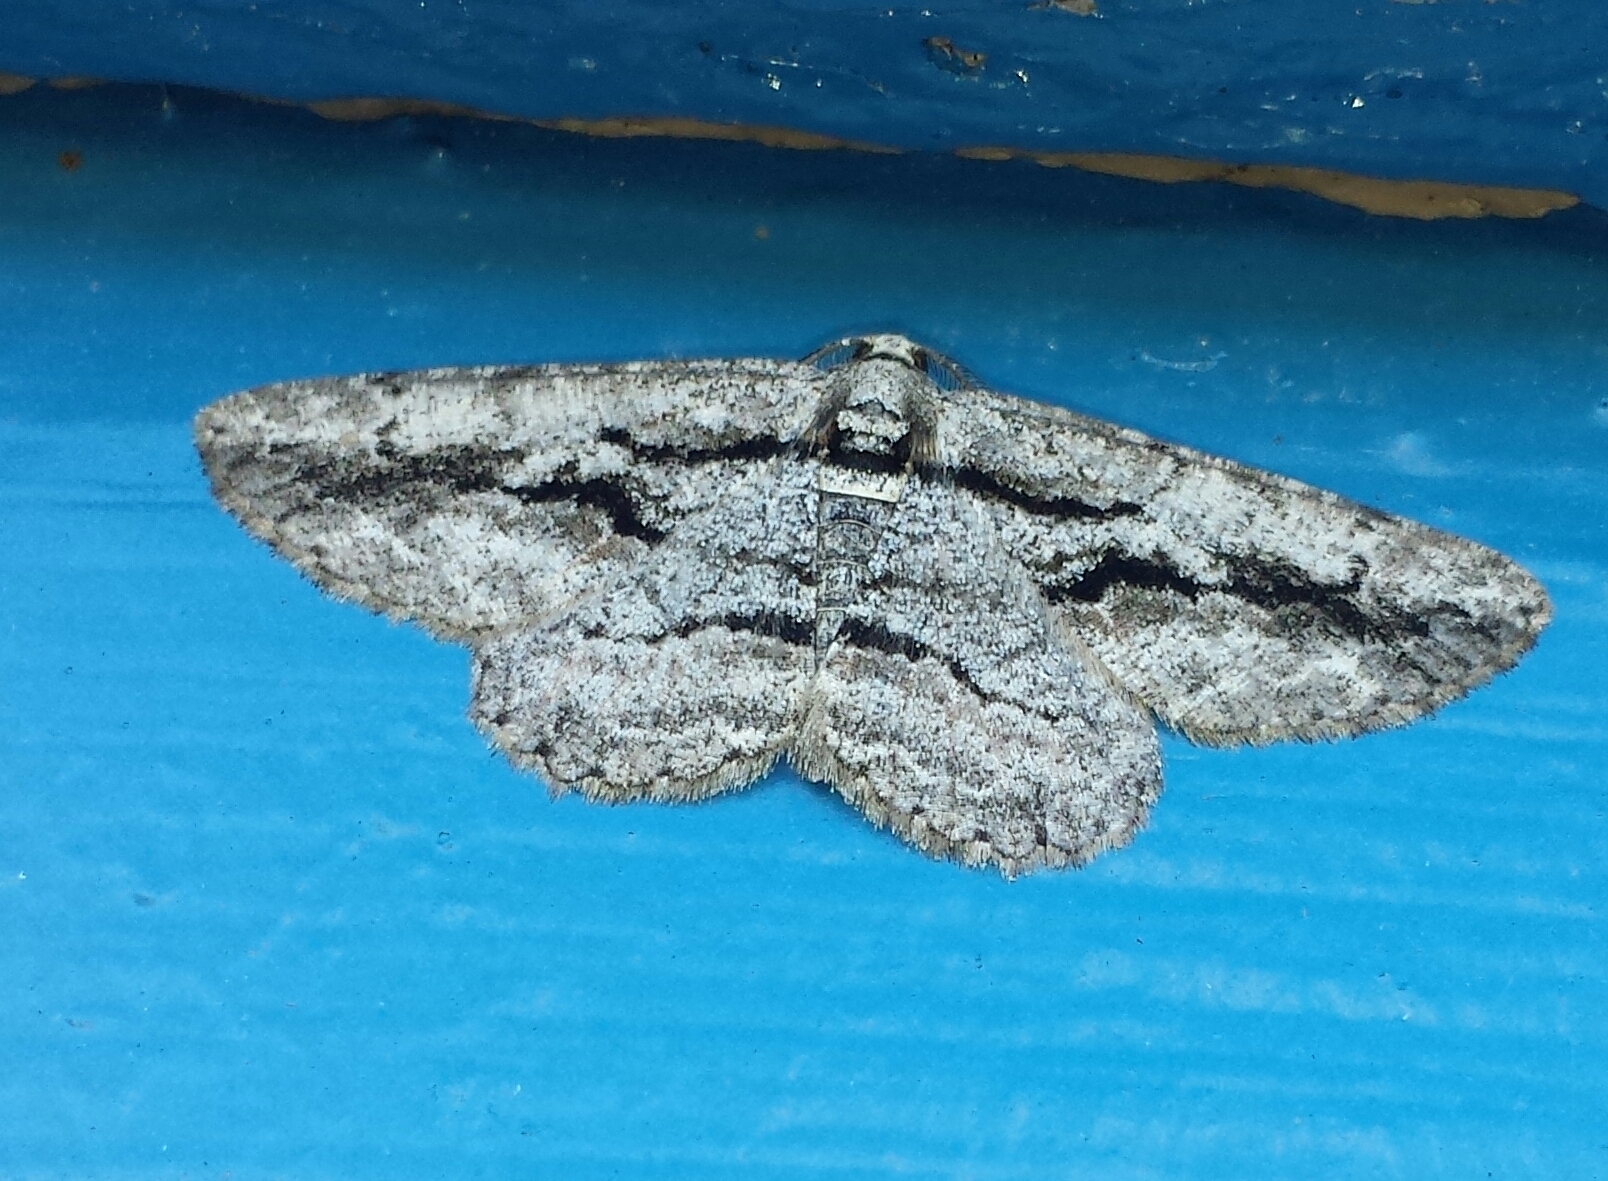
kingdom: Animalia
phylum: Arthropoda
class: Insecta
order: Lepidoptera
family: Geometridae
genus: Anavitrinella
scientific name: Anavitrinella pampinaria
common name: Common gray
